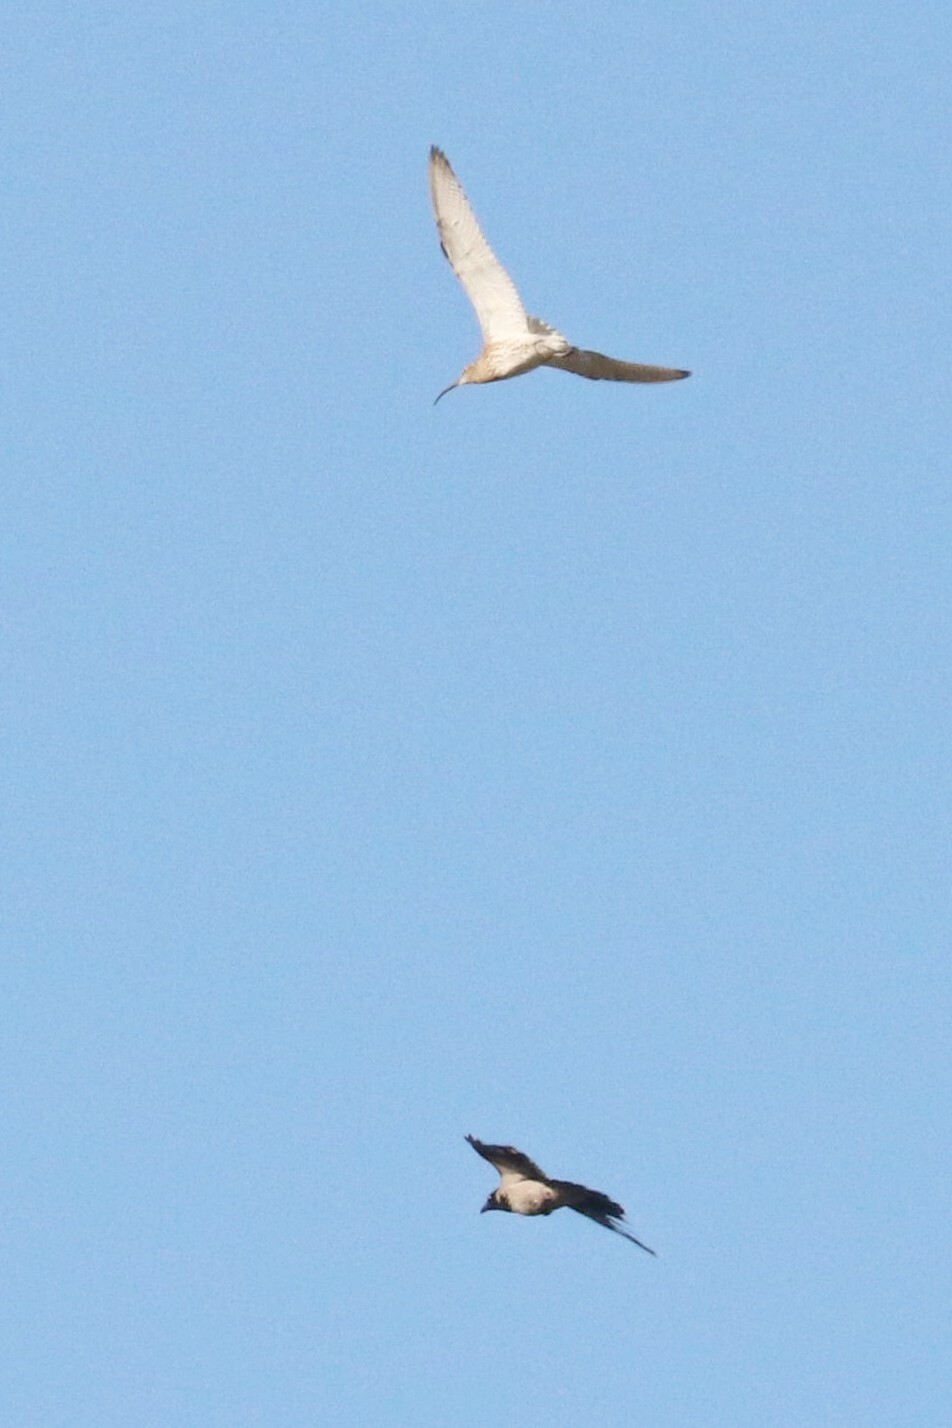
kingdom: Animalia
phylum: Chordata
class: Aves
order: Charadriiformes
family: Scolopacidae
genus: Numenius
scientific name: Numenius arquata
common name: Eurasian curlew
